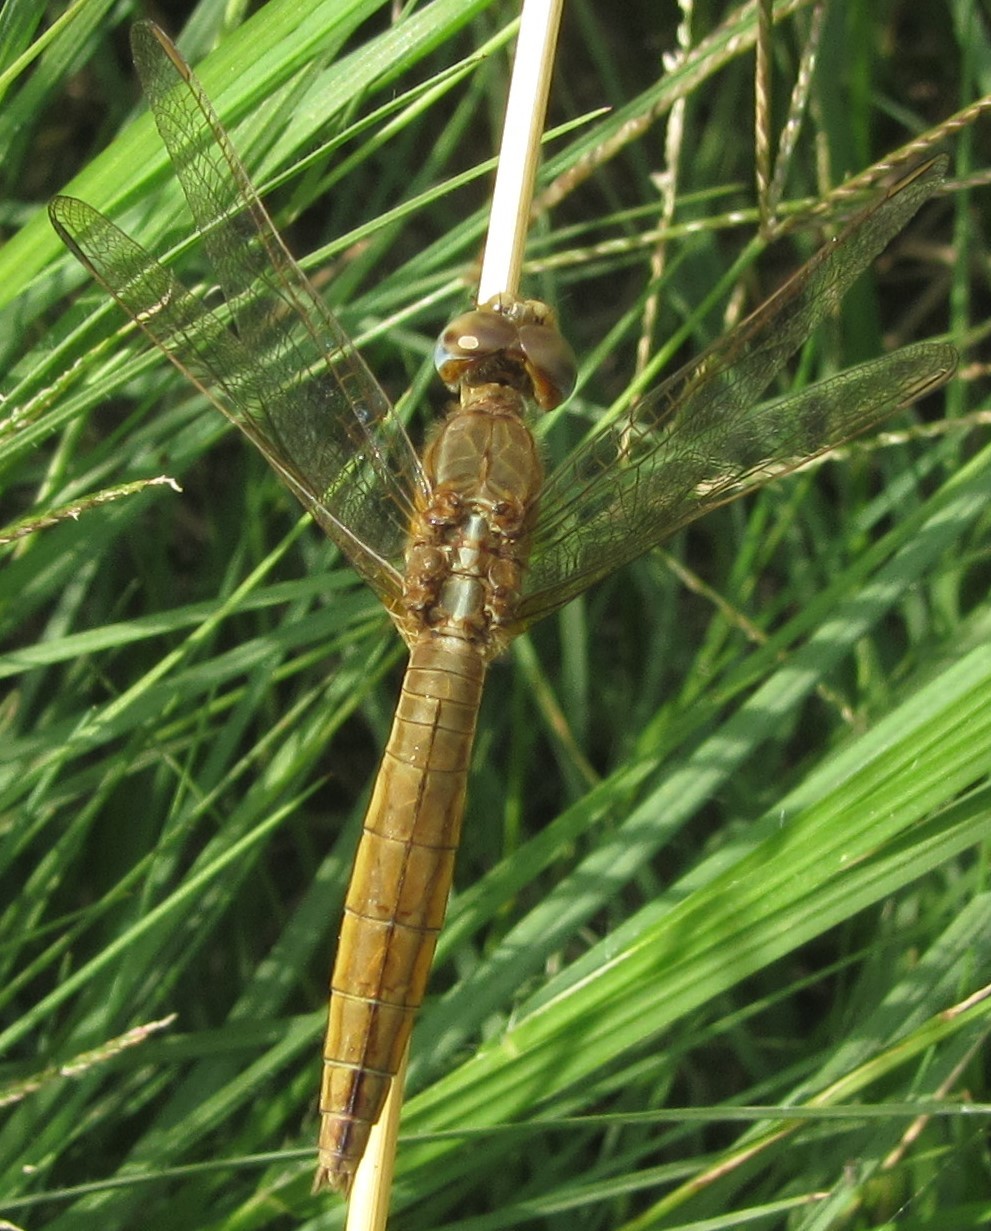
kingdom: Animalia
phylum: Arthropoda
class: Insecta
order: Odonata
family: Libellulidae
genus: Crocothemis
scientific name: Crocothemis erythraea
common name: Scarlet dragonfly
